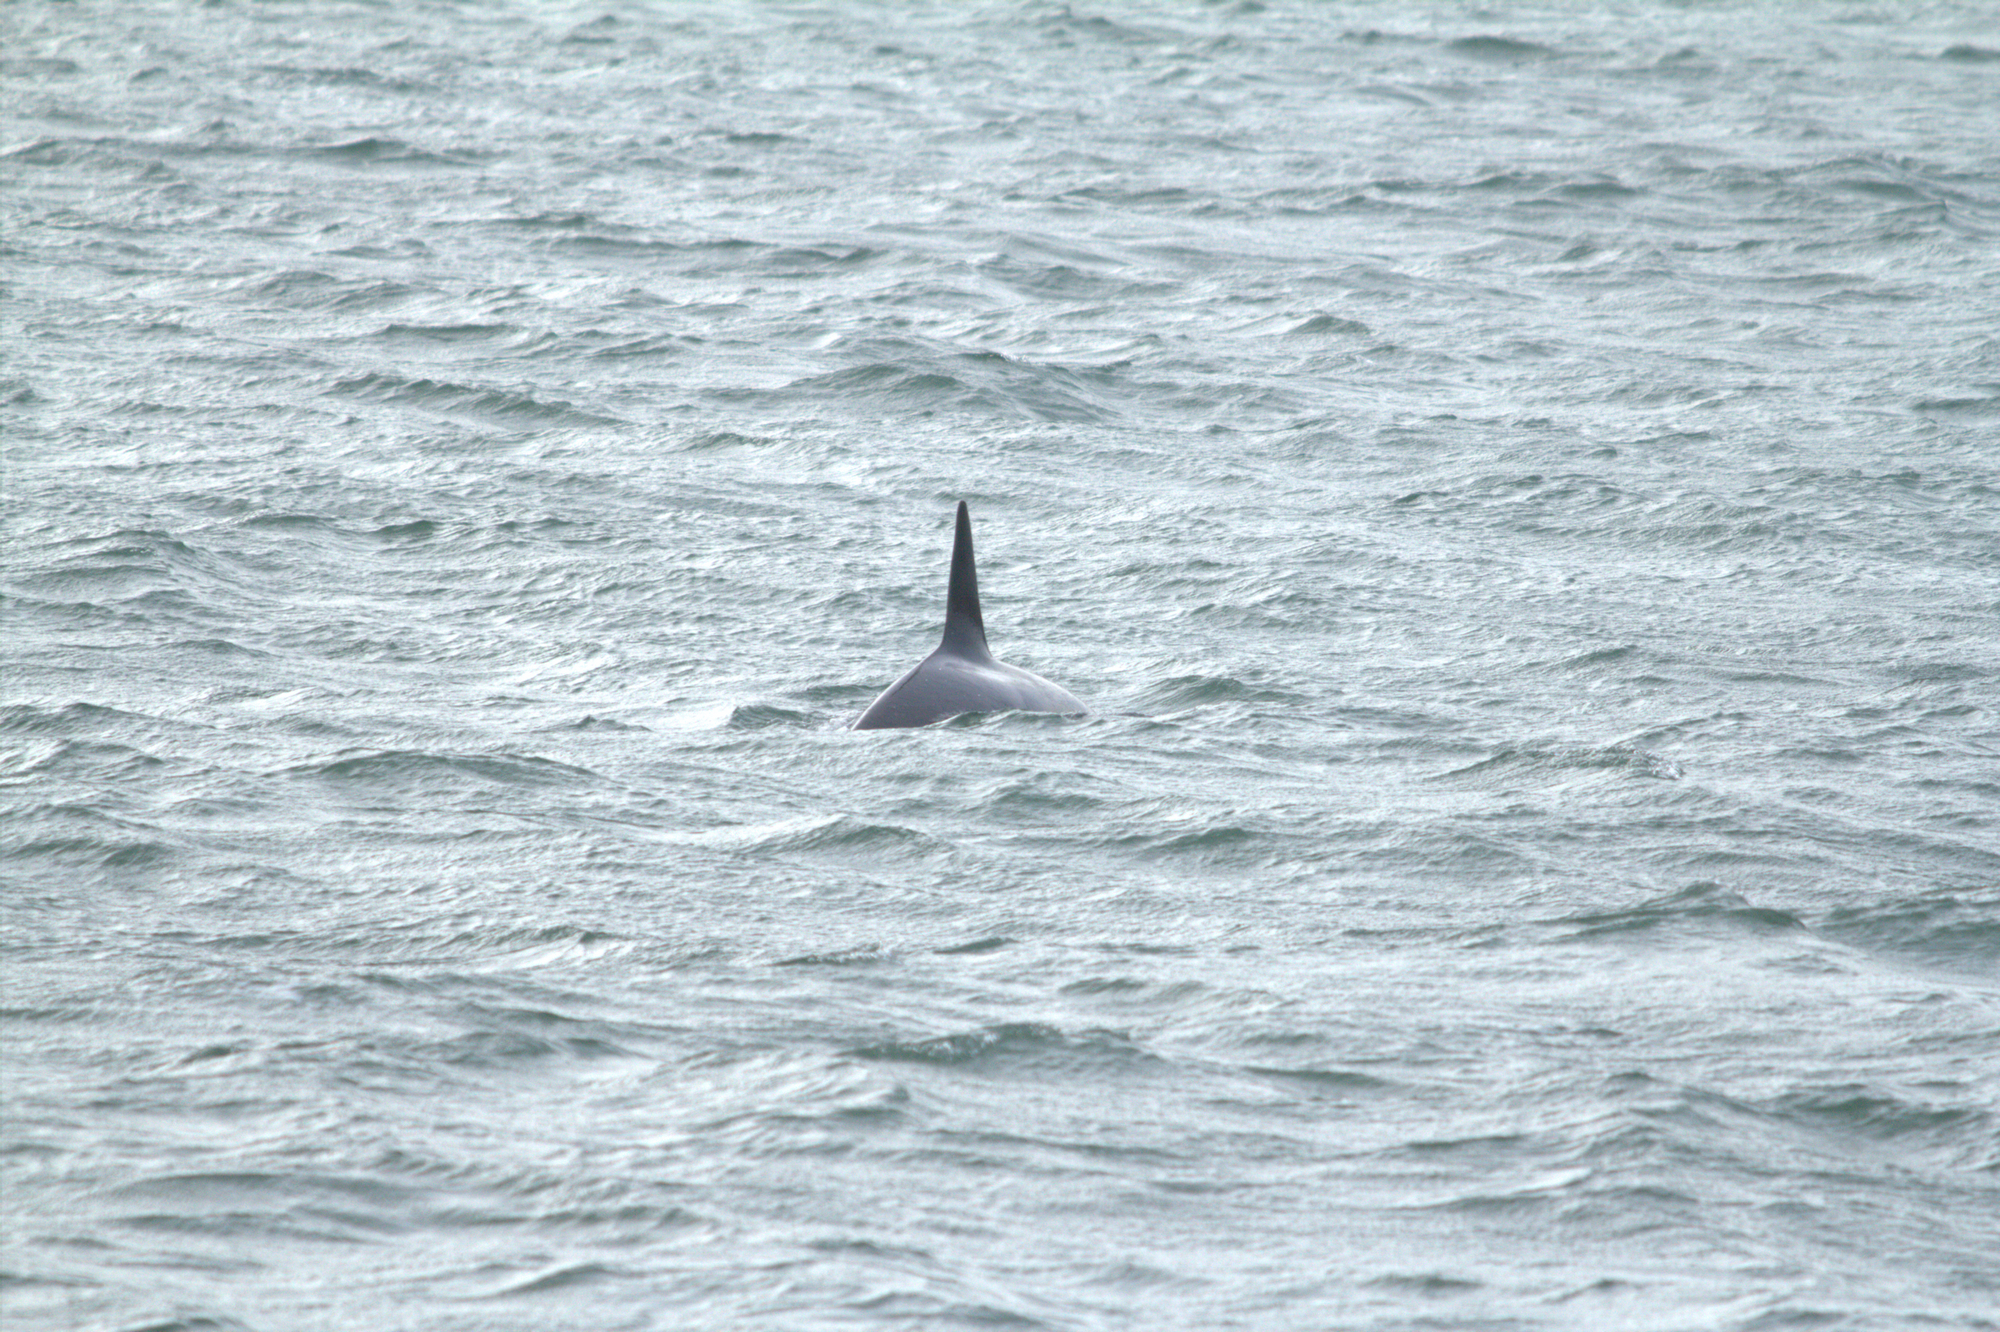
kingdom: Animalia
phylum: Chordata
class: Mammalia
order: Cetacea
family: Delphinidae
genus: Orcinus
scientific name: Orcinus orca
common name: Killer whale
